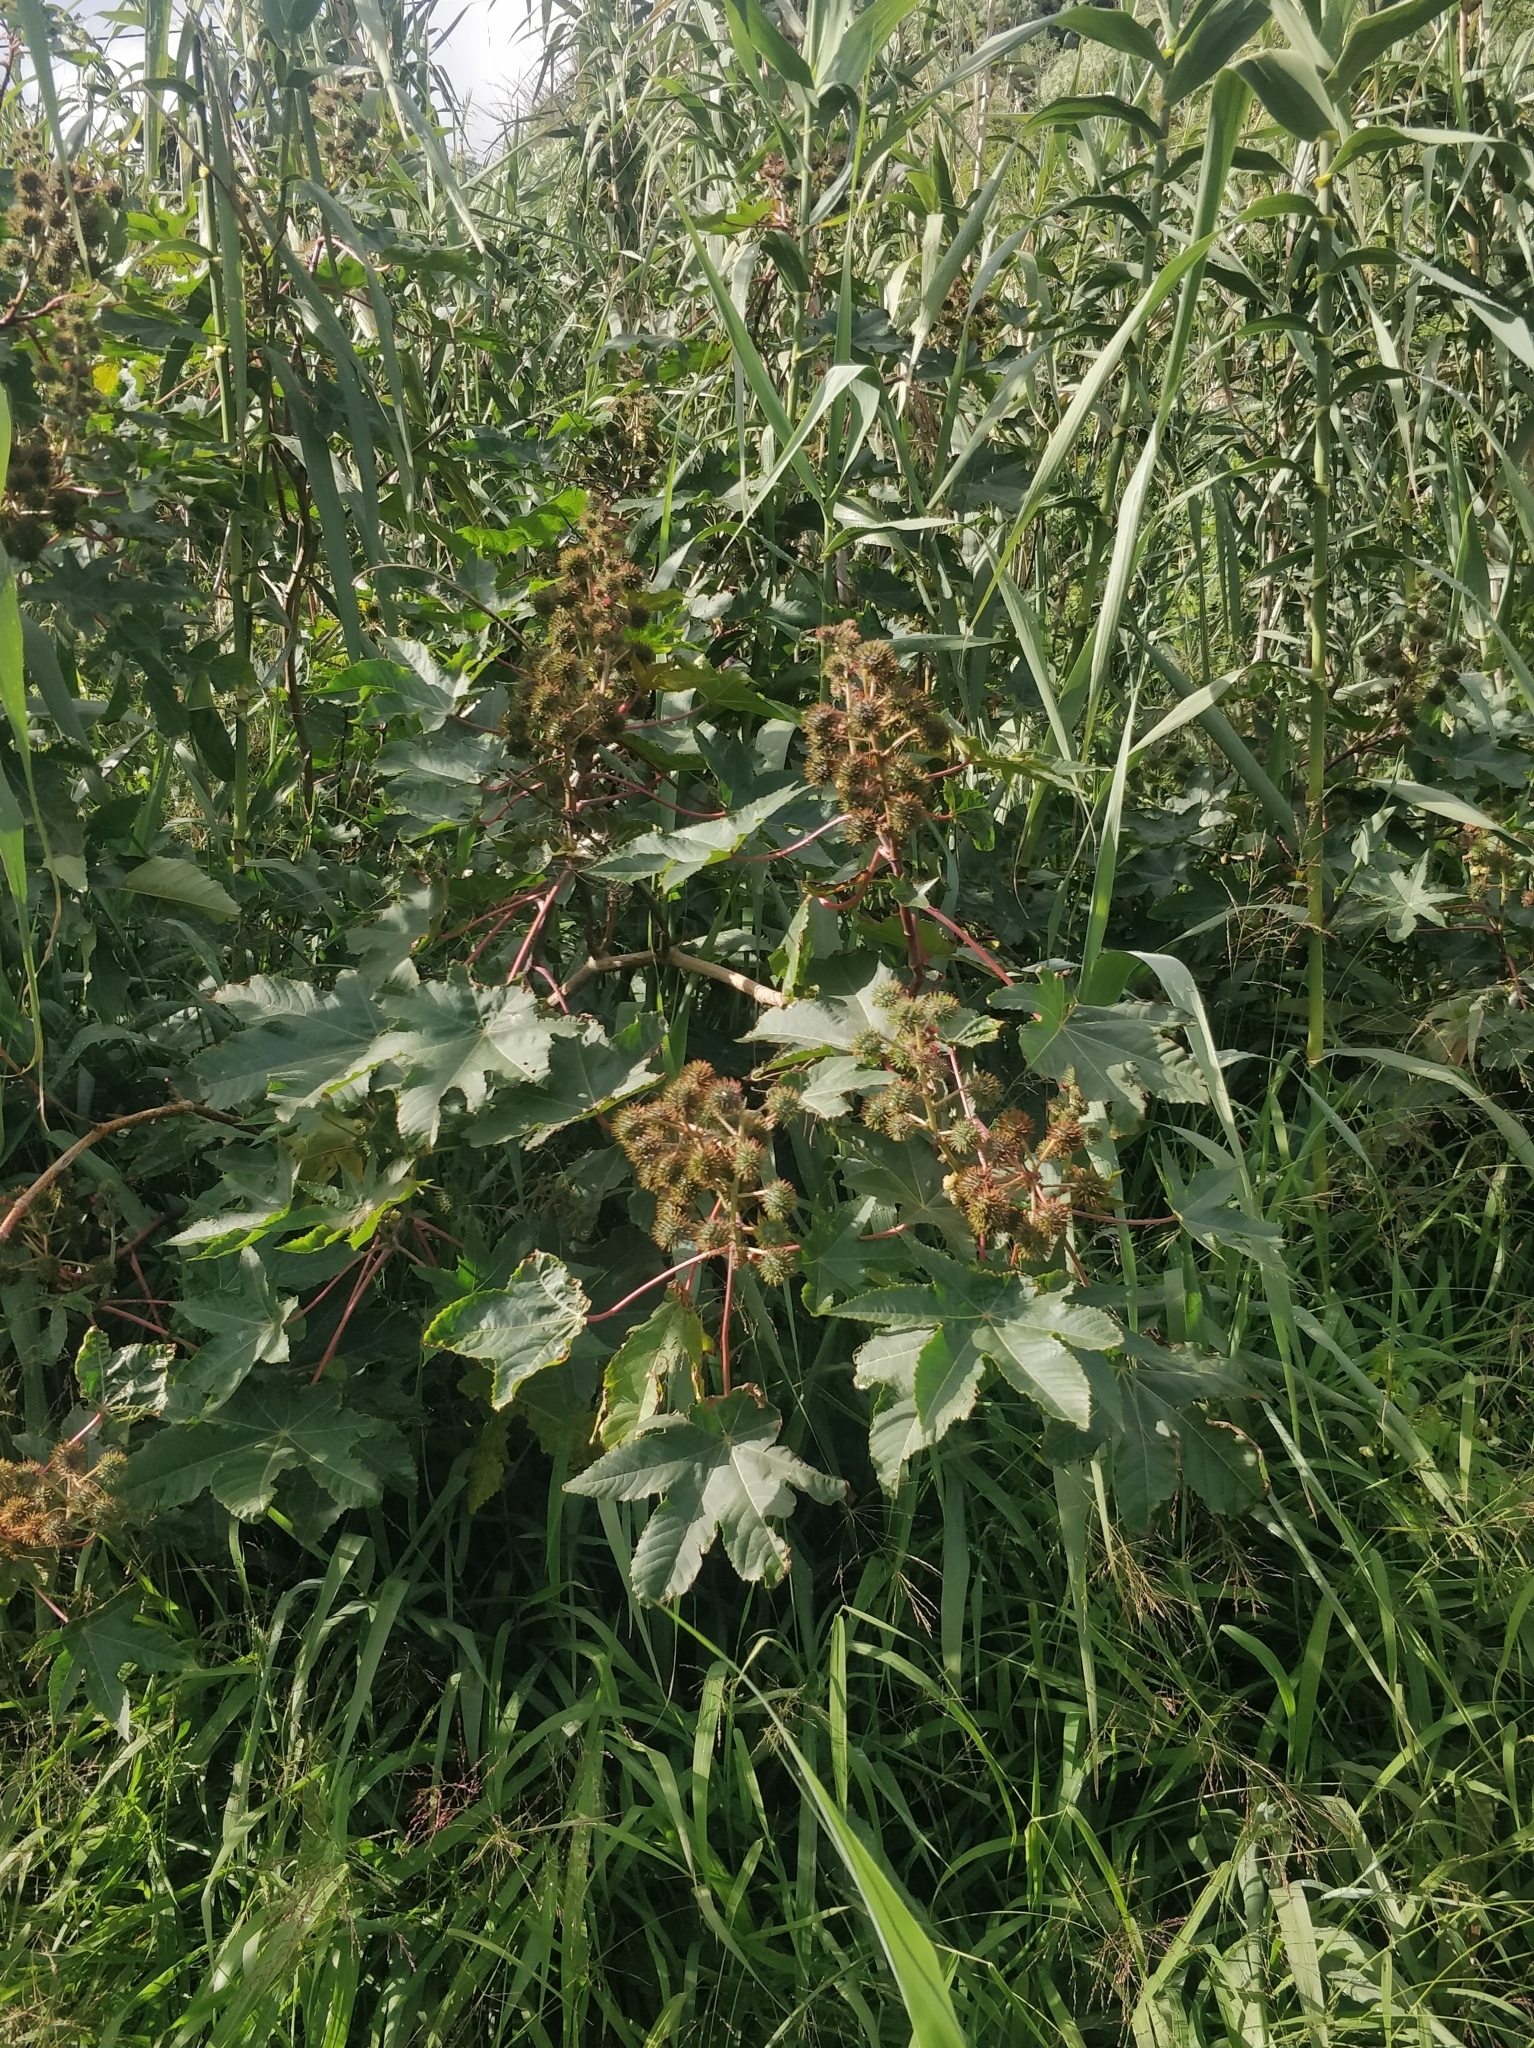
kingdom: Plantae
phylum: Tracheophyta
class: Magnoliopsida
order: Malpighiales
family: Euphorbiaceae
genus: Ricinus
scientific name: Ricinus communis
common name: Castor-oil-plant
